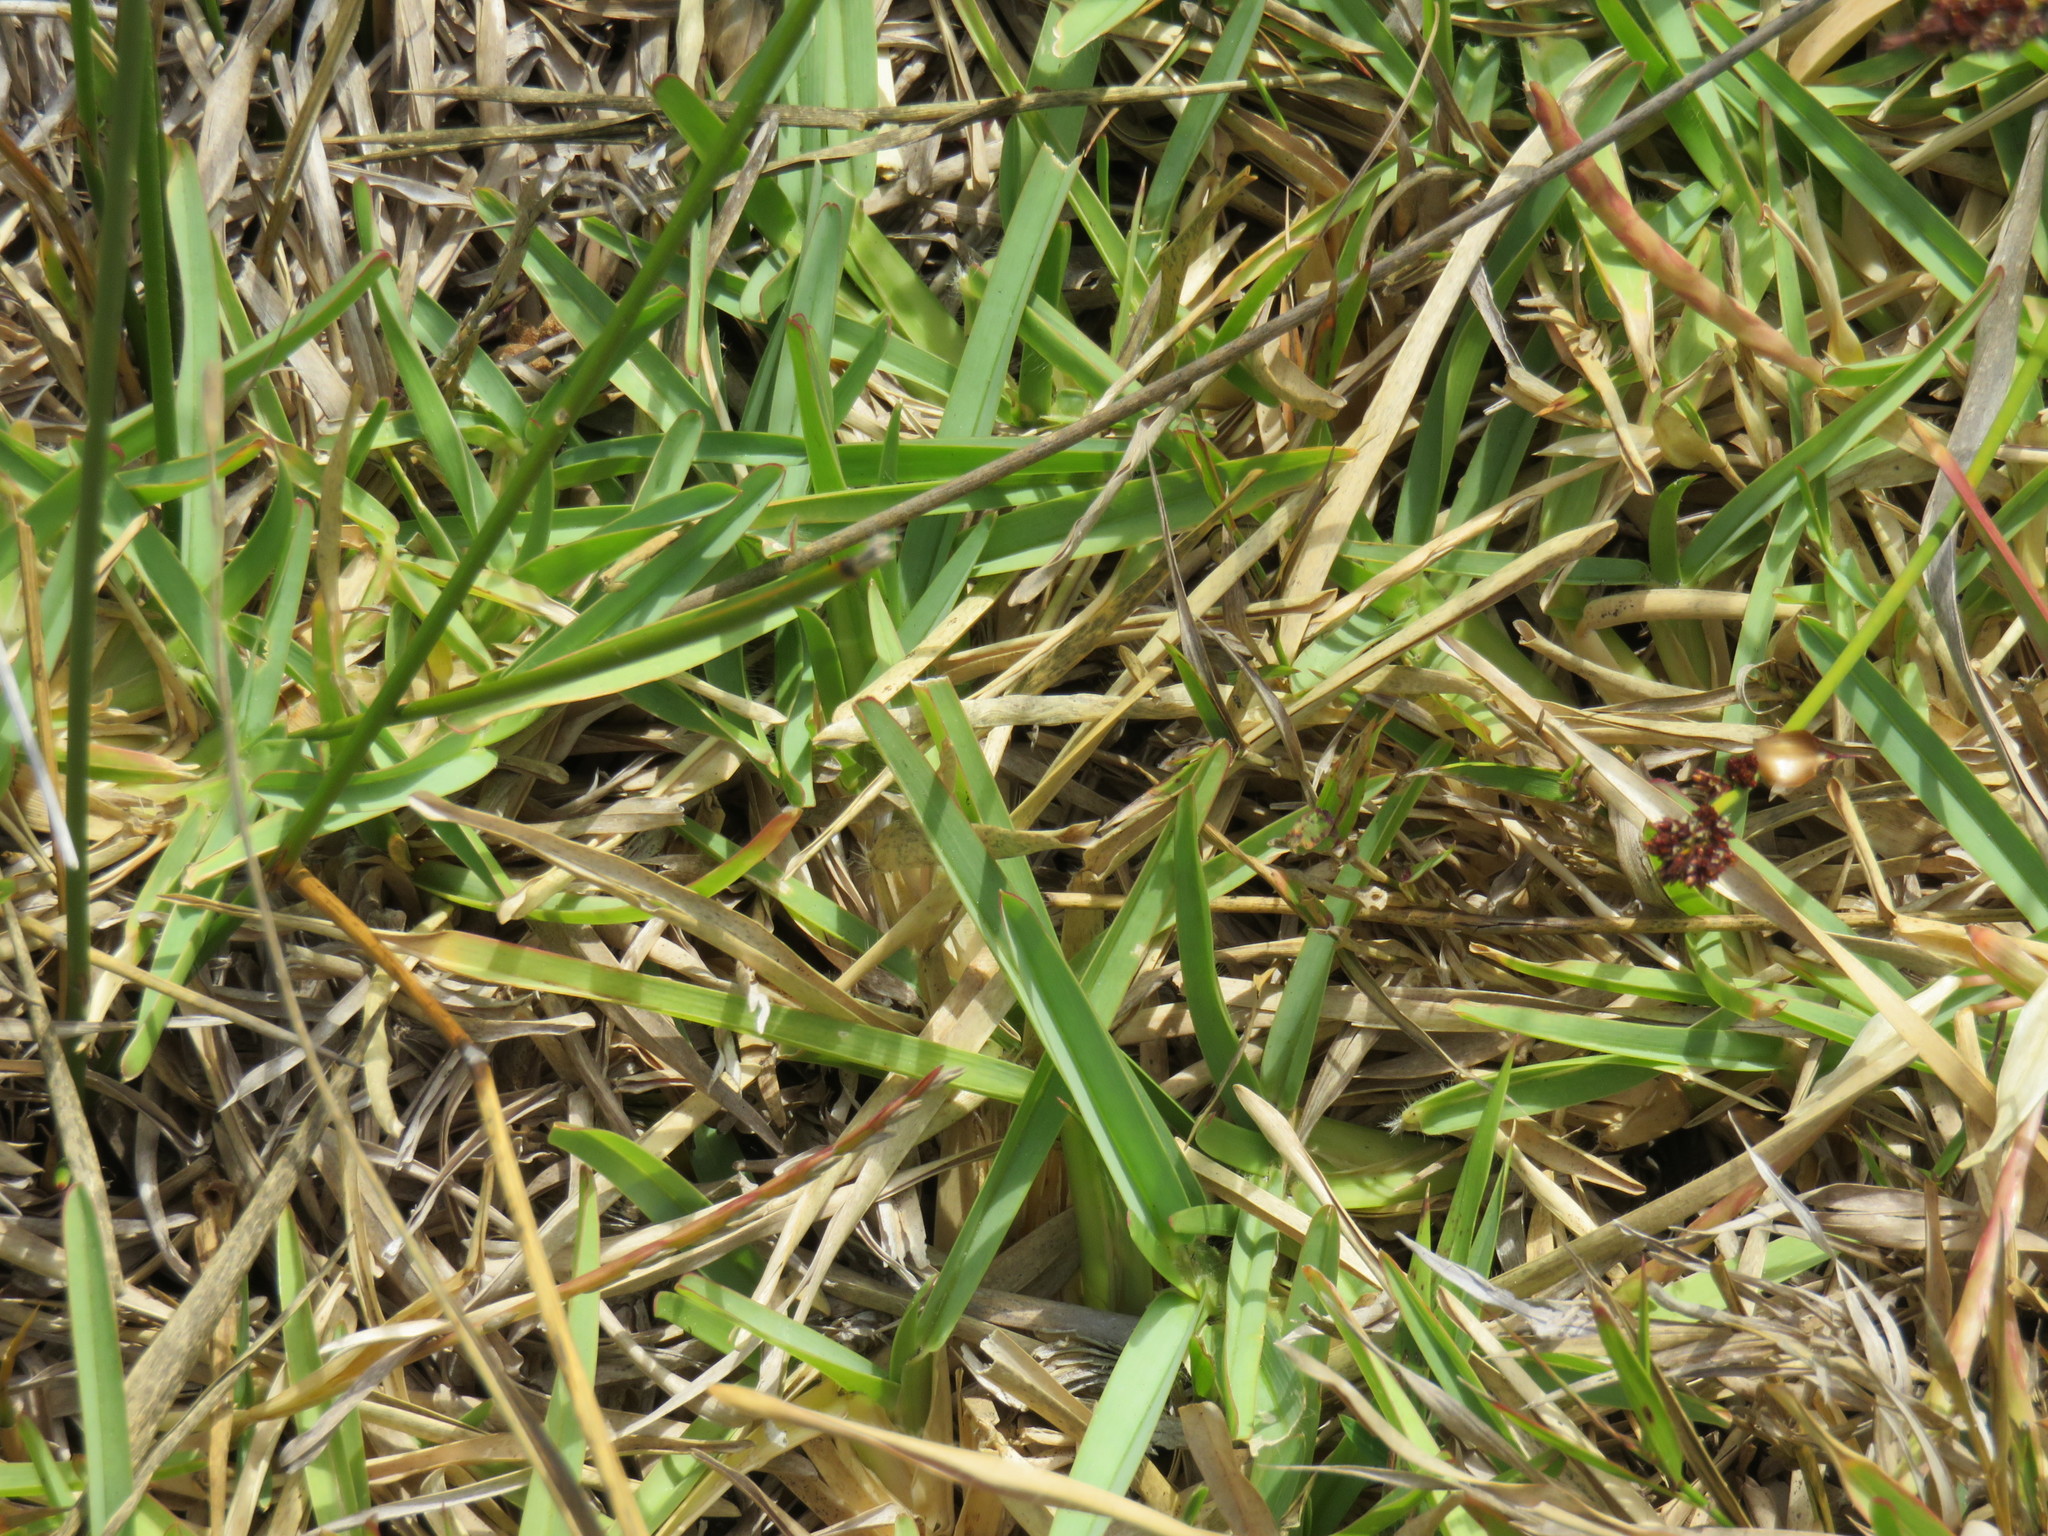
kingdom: Plantae
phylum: Tracheophyta
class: Liliopsida
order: Poales
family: Poaceae
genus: Stenotaphrum
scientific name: Stenotaphrum secundatum
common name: St. augustine grass
